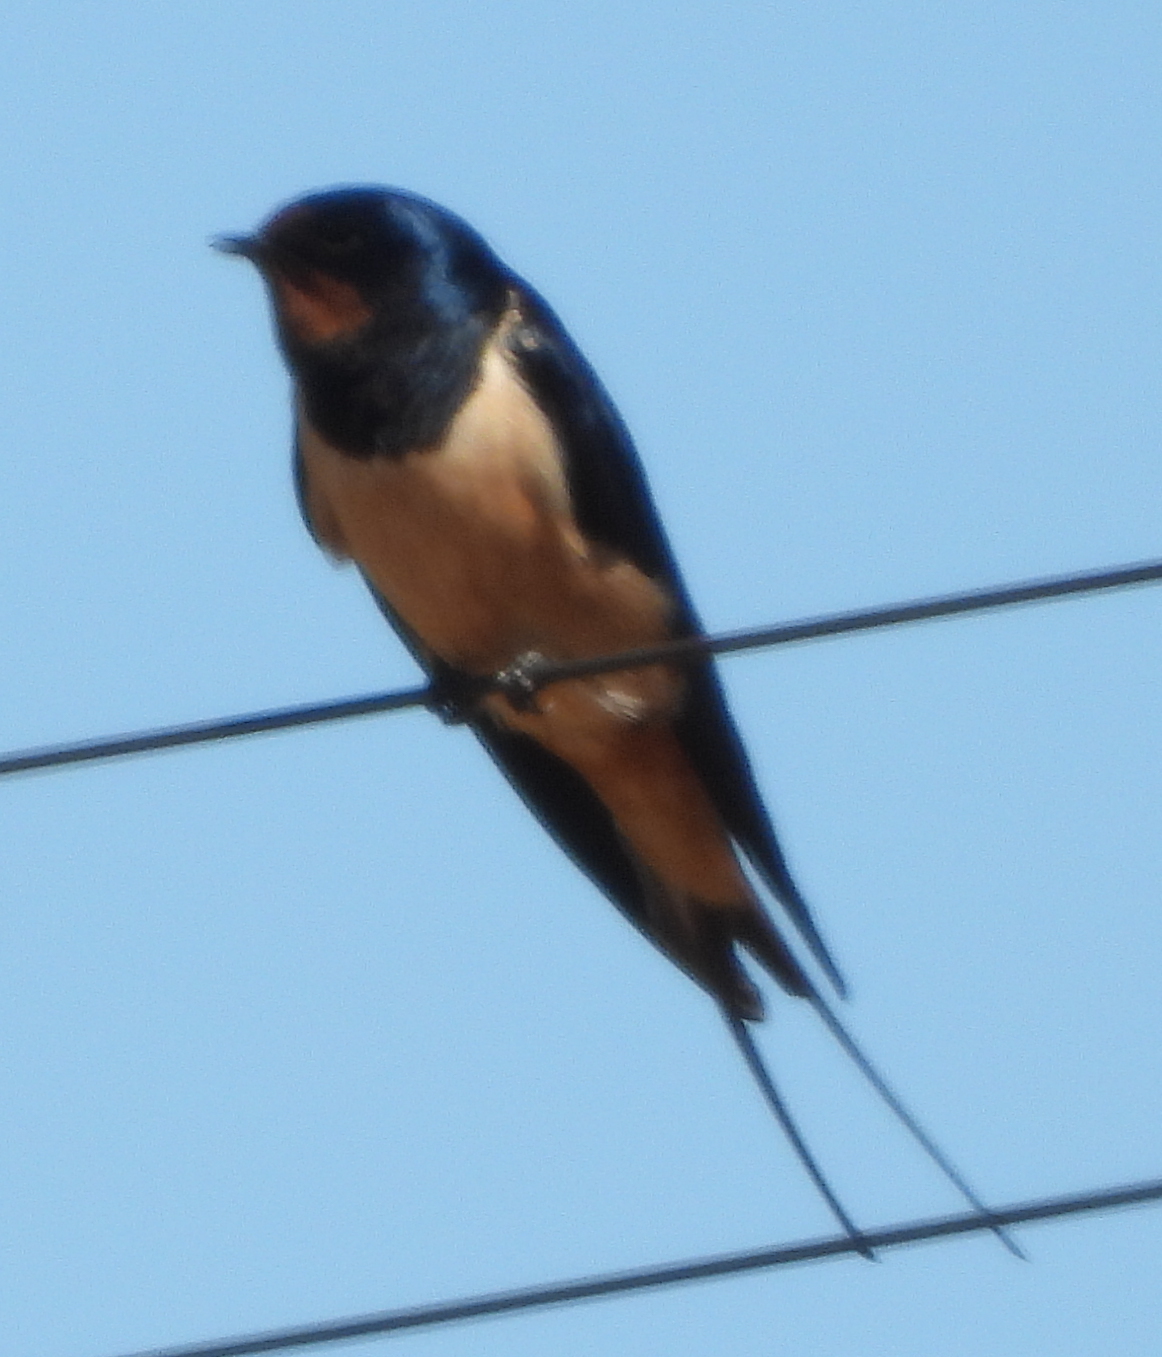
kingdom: Animalia
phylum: Chordata
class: Aves
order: Passeriformes
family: Hirundinidae
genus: Hirundo
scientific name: Hirundo rustica
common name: Barn swallow
